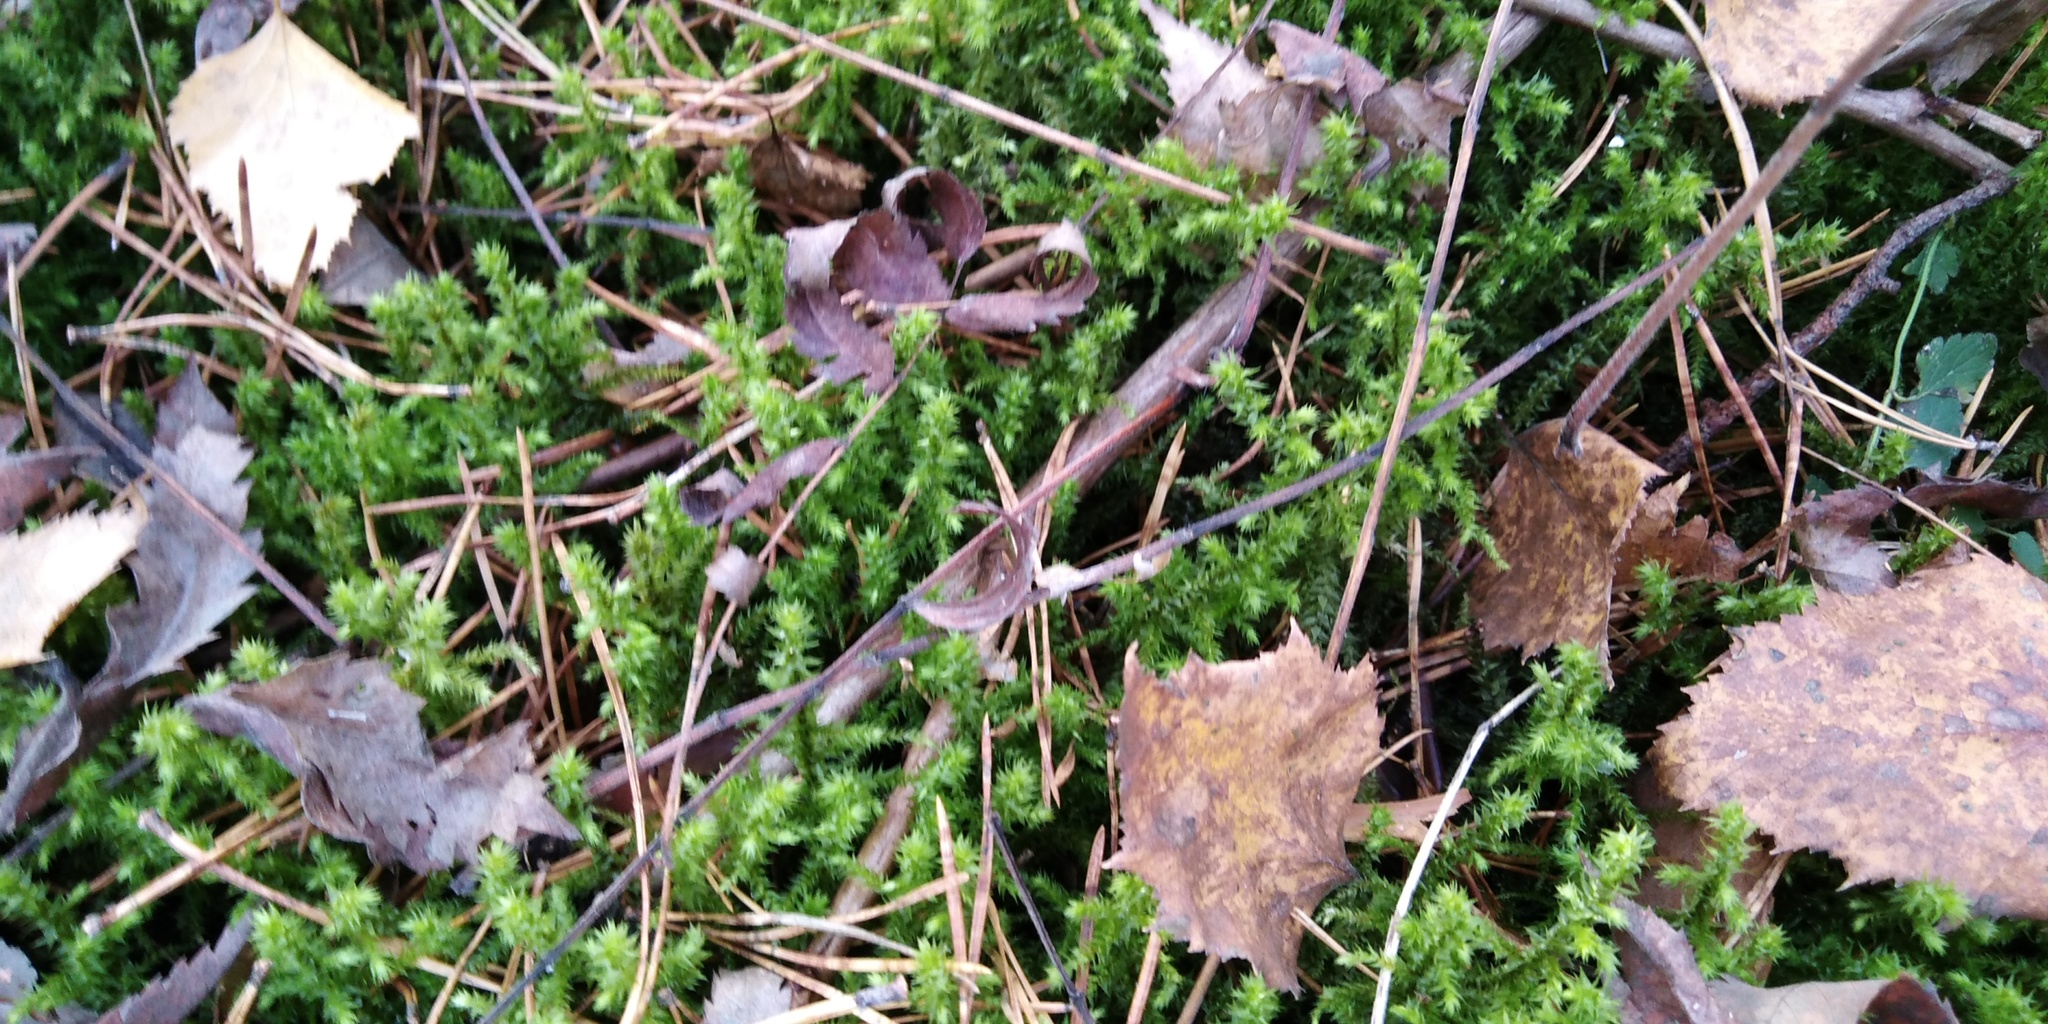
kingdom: Plantae
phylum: Bryophyta
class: Bryopsida
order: Hypnales
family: Hylocomiaceae
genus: Hylocomiadelphus
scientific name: Hylocomiadelphus triquetrus
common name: Rough goose neck moss
